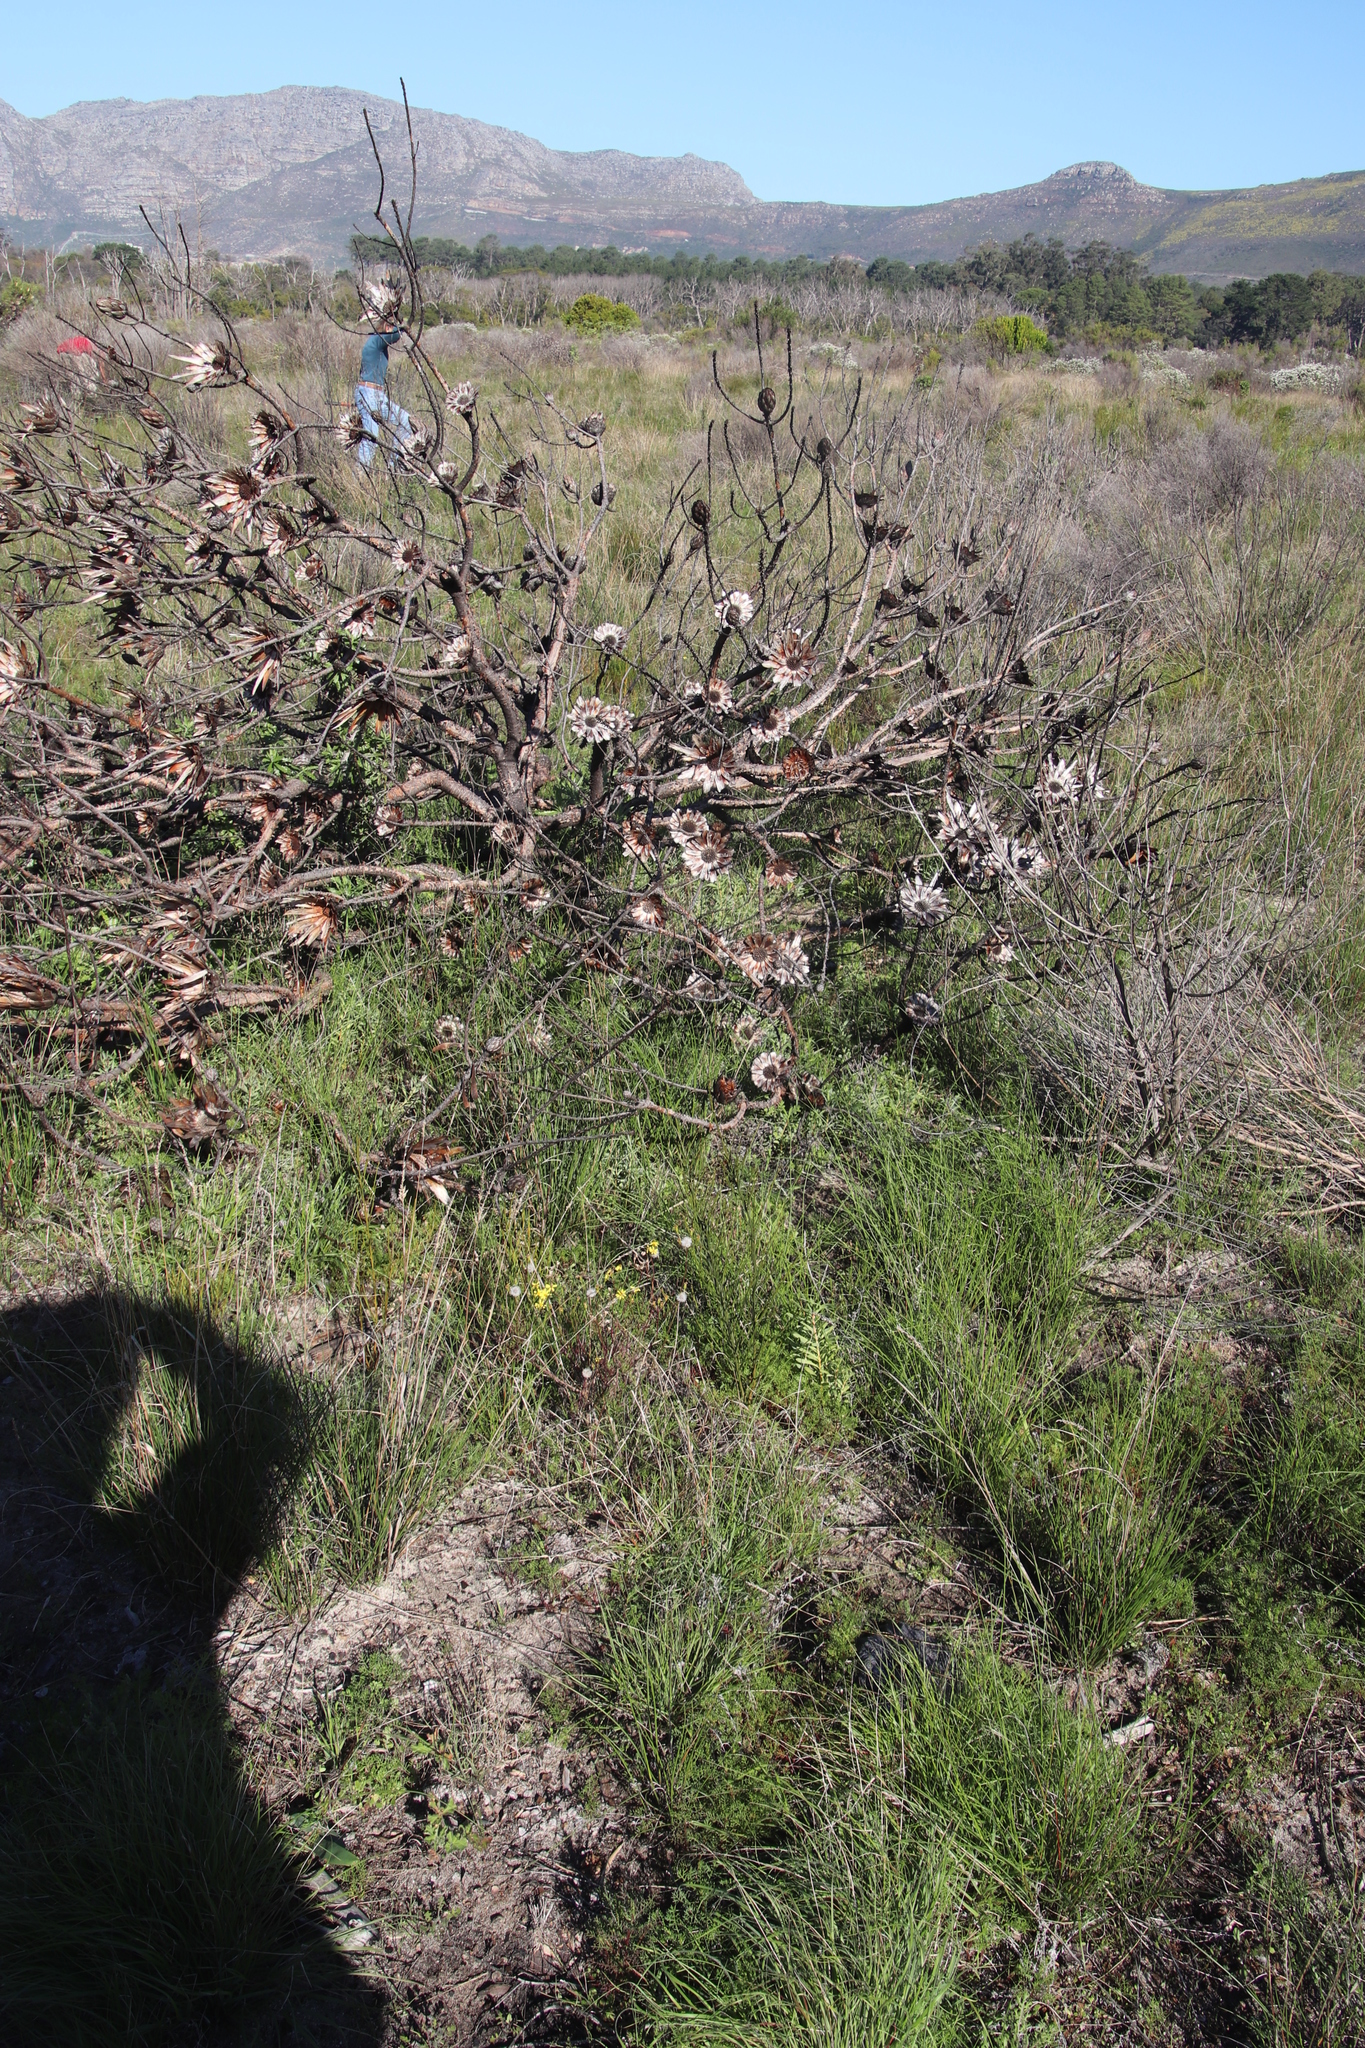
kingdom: Plantae
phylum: Tracheophyta
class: Magnoliopsida
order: Proteales
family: Proteaceae
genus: Protea
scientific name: Protea repens
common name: Sugarbush
